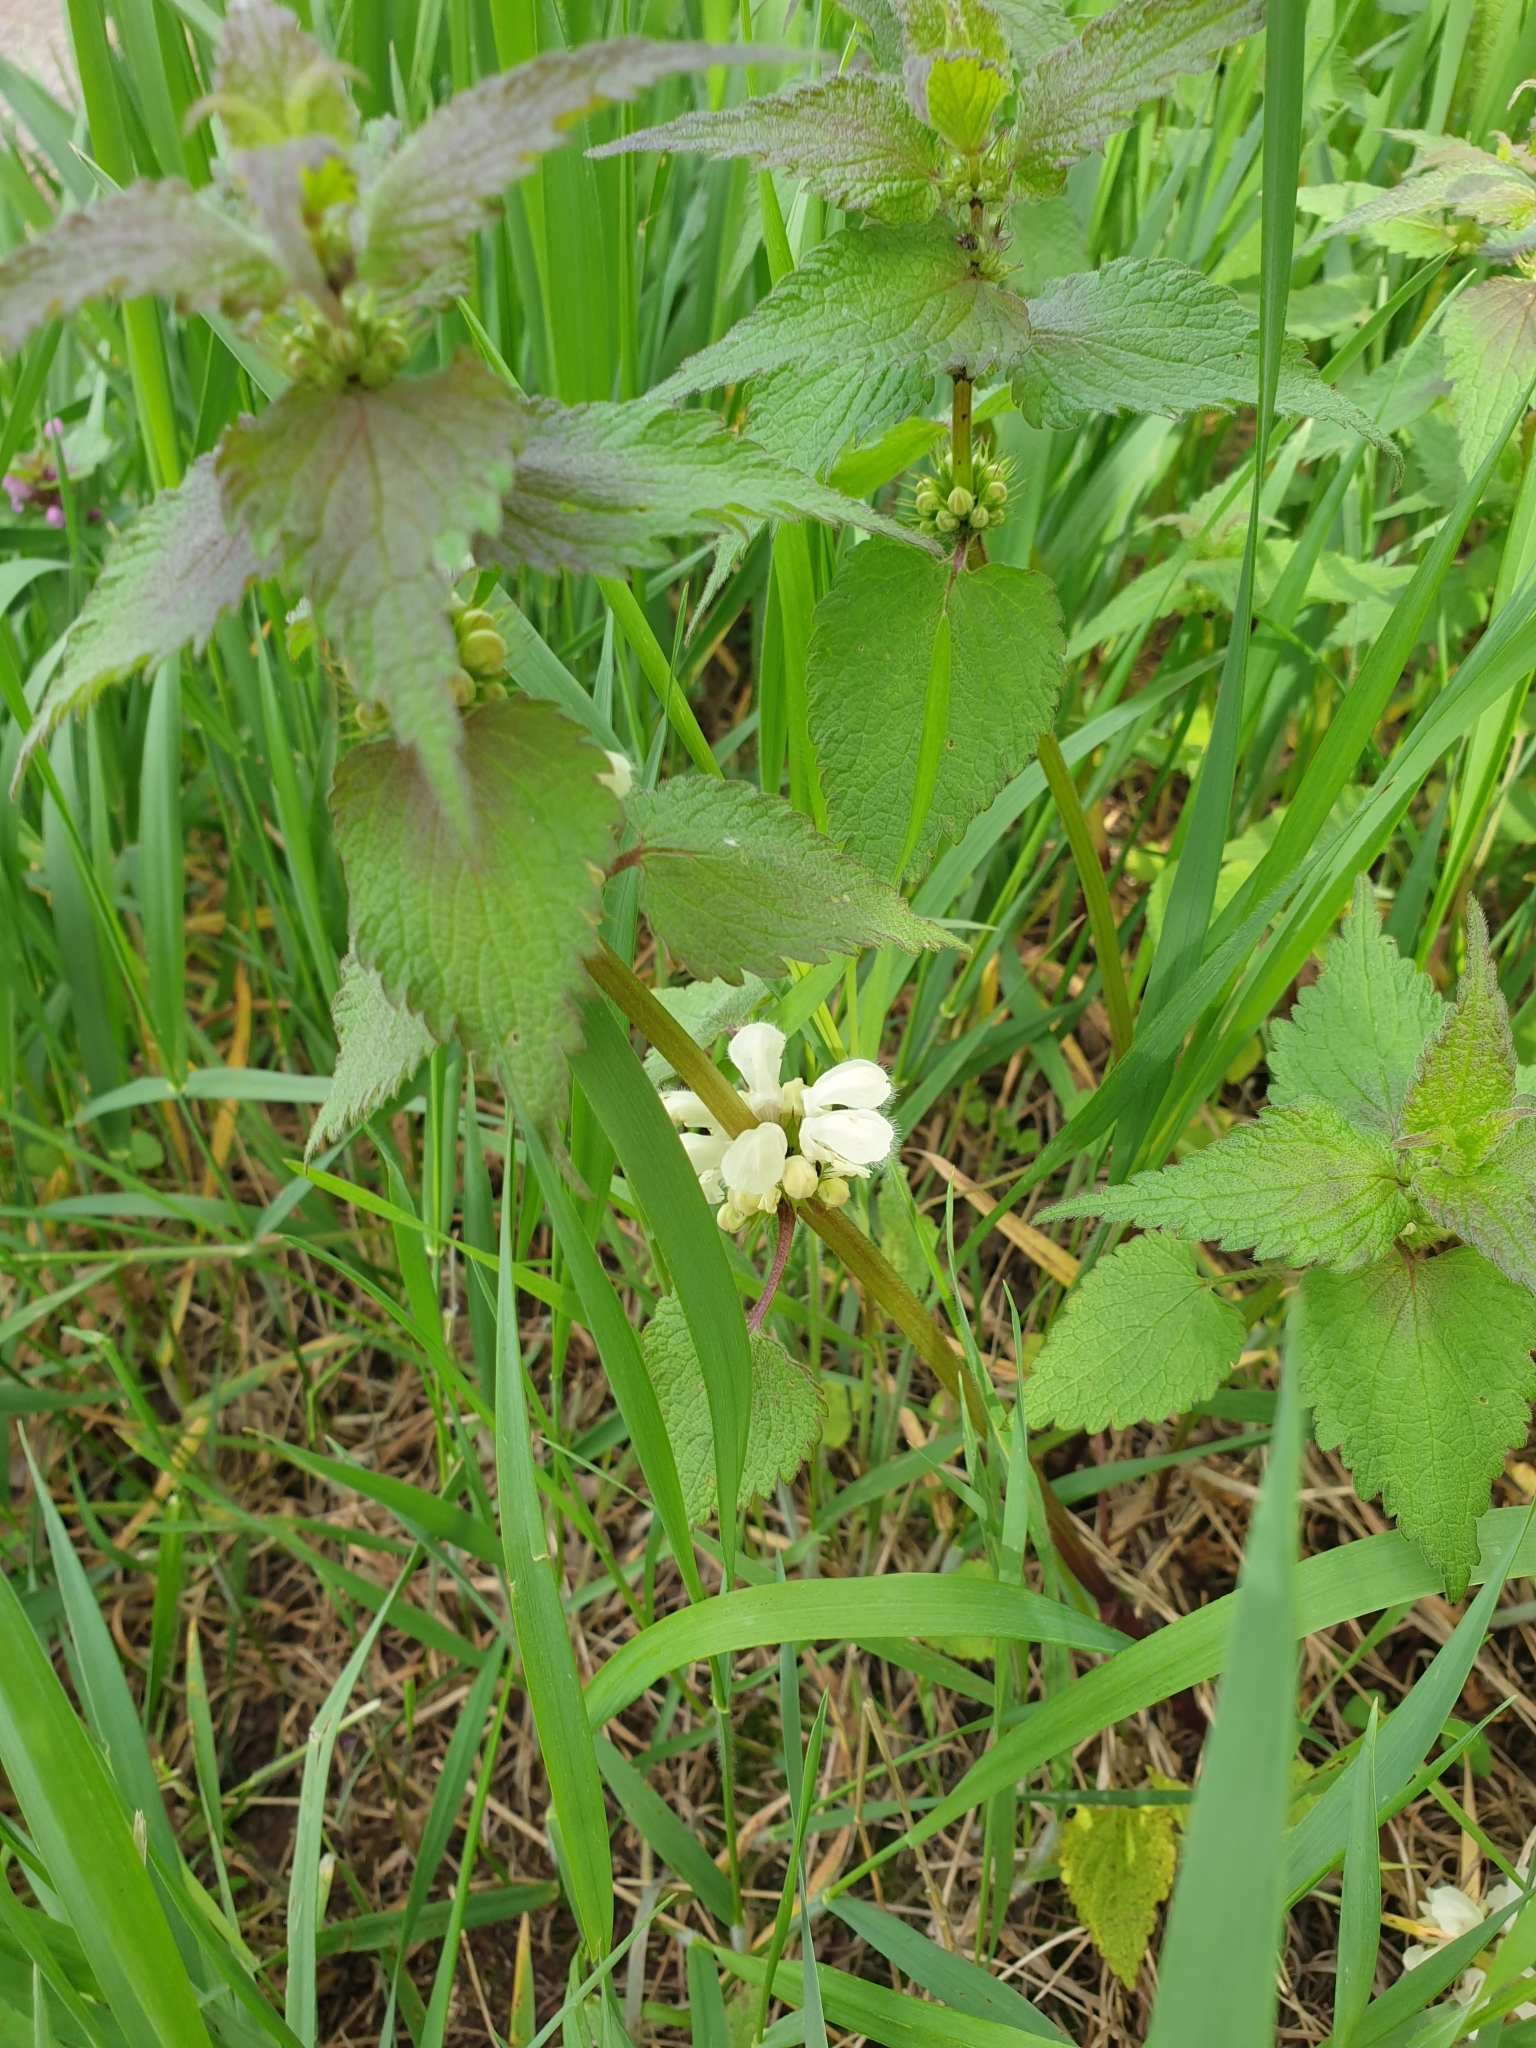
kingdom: Plantae
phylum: Tracheophyta
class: Magnoliopsida
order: Lamiales
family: Lamiaceae
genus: Lamium
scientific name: Lamium album
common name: White dead-nettle
